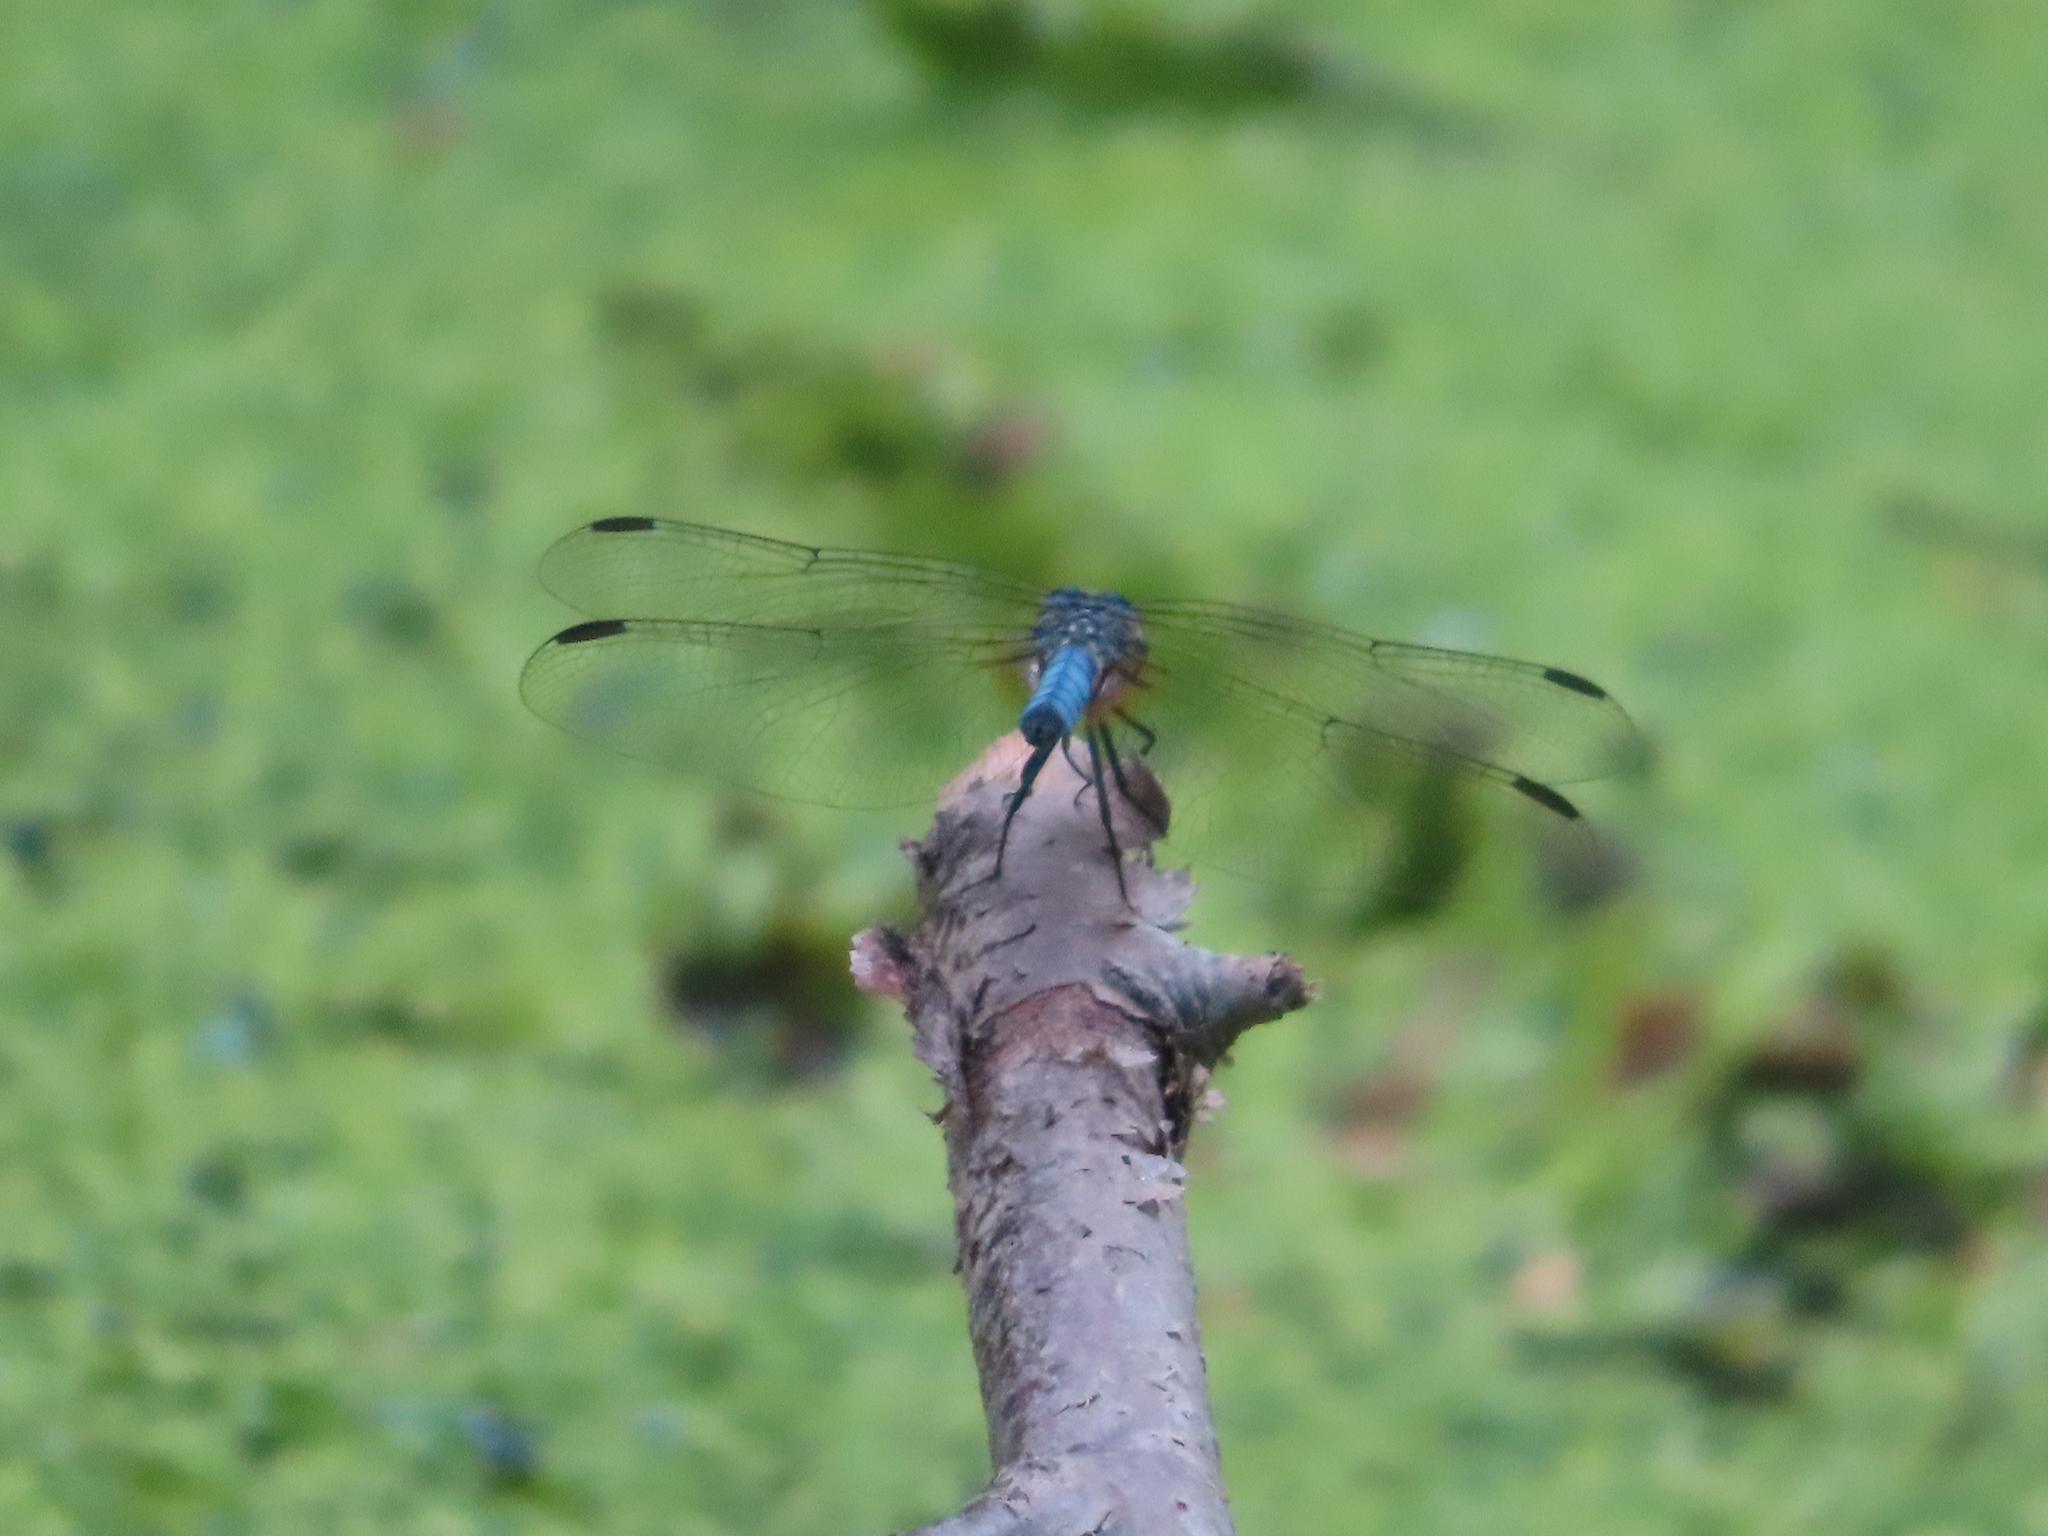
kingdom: Animalia
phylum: Arthropoda
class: Insecta
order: Odonata
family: Libellulidae
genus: Pachydiplax
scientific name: Pachydiplax longipennis
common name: Blue dasher
